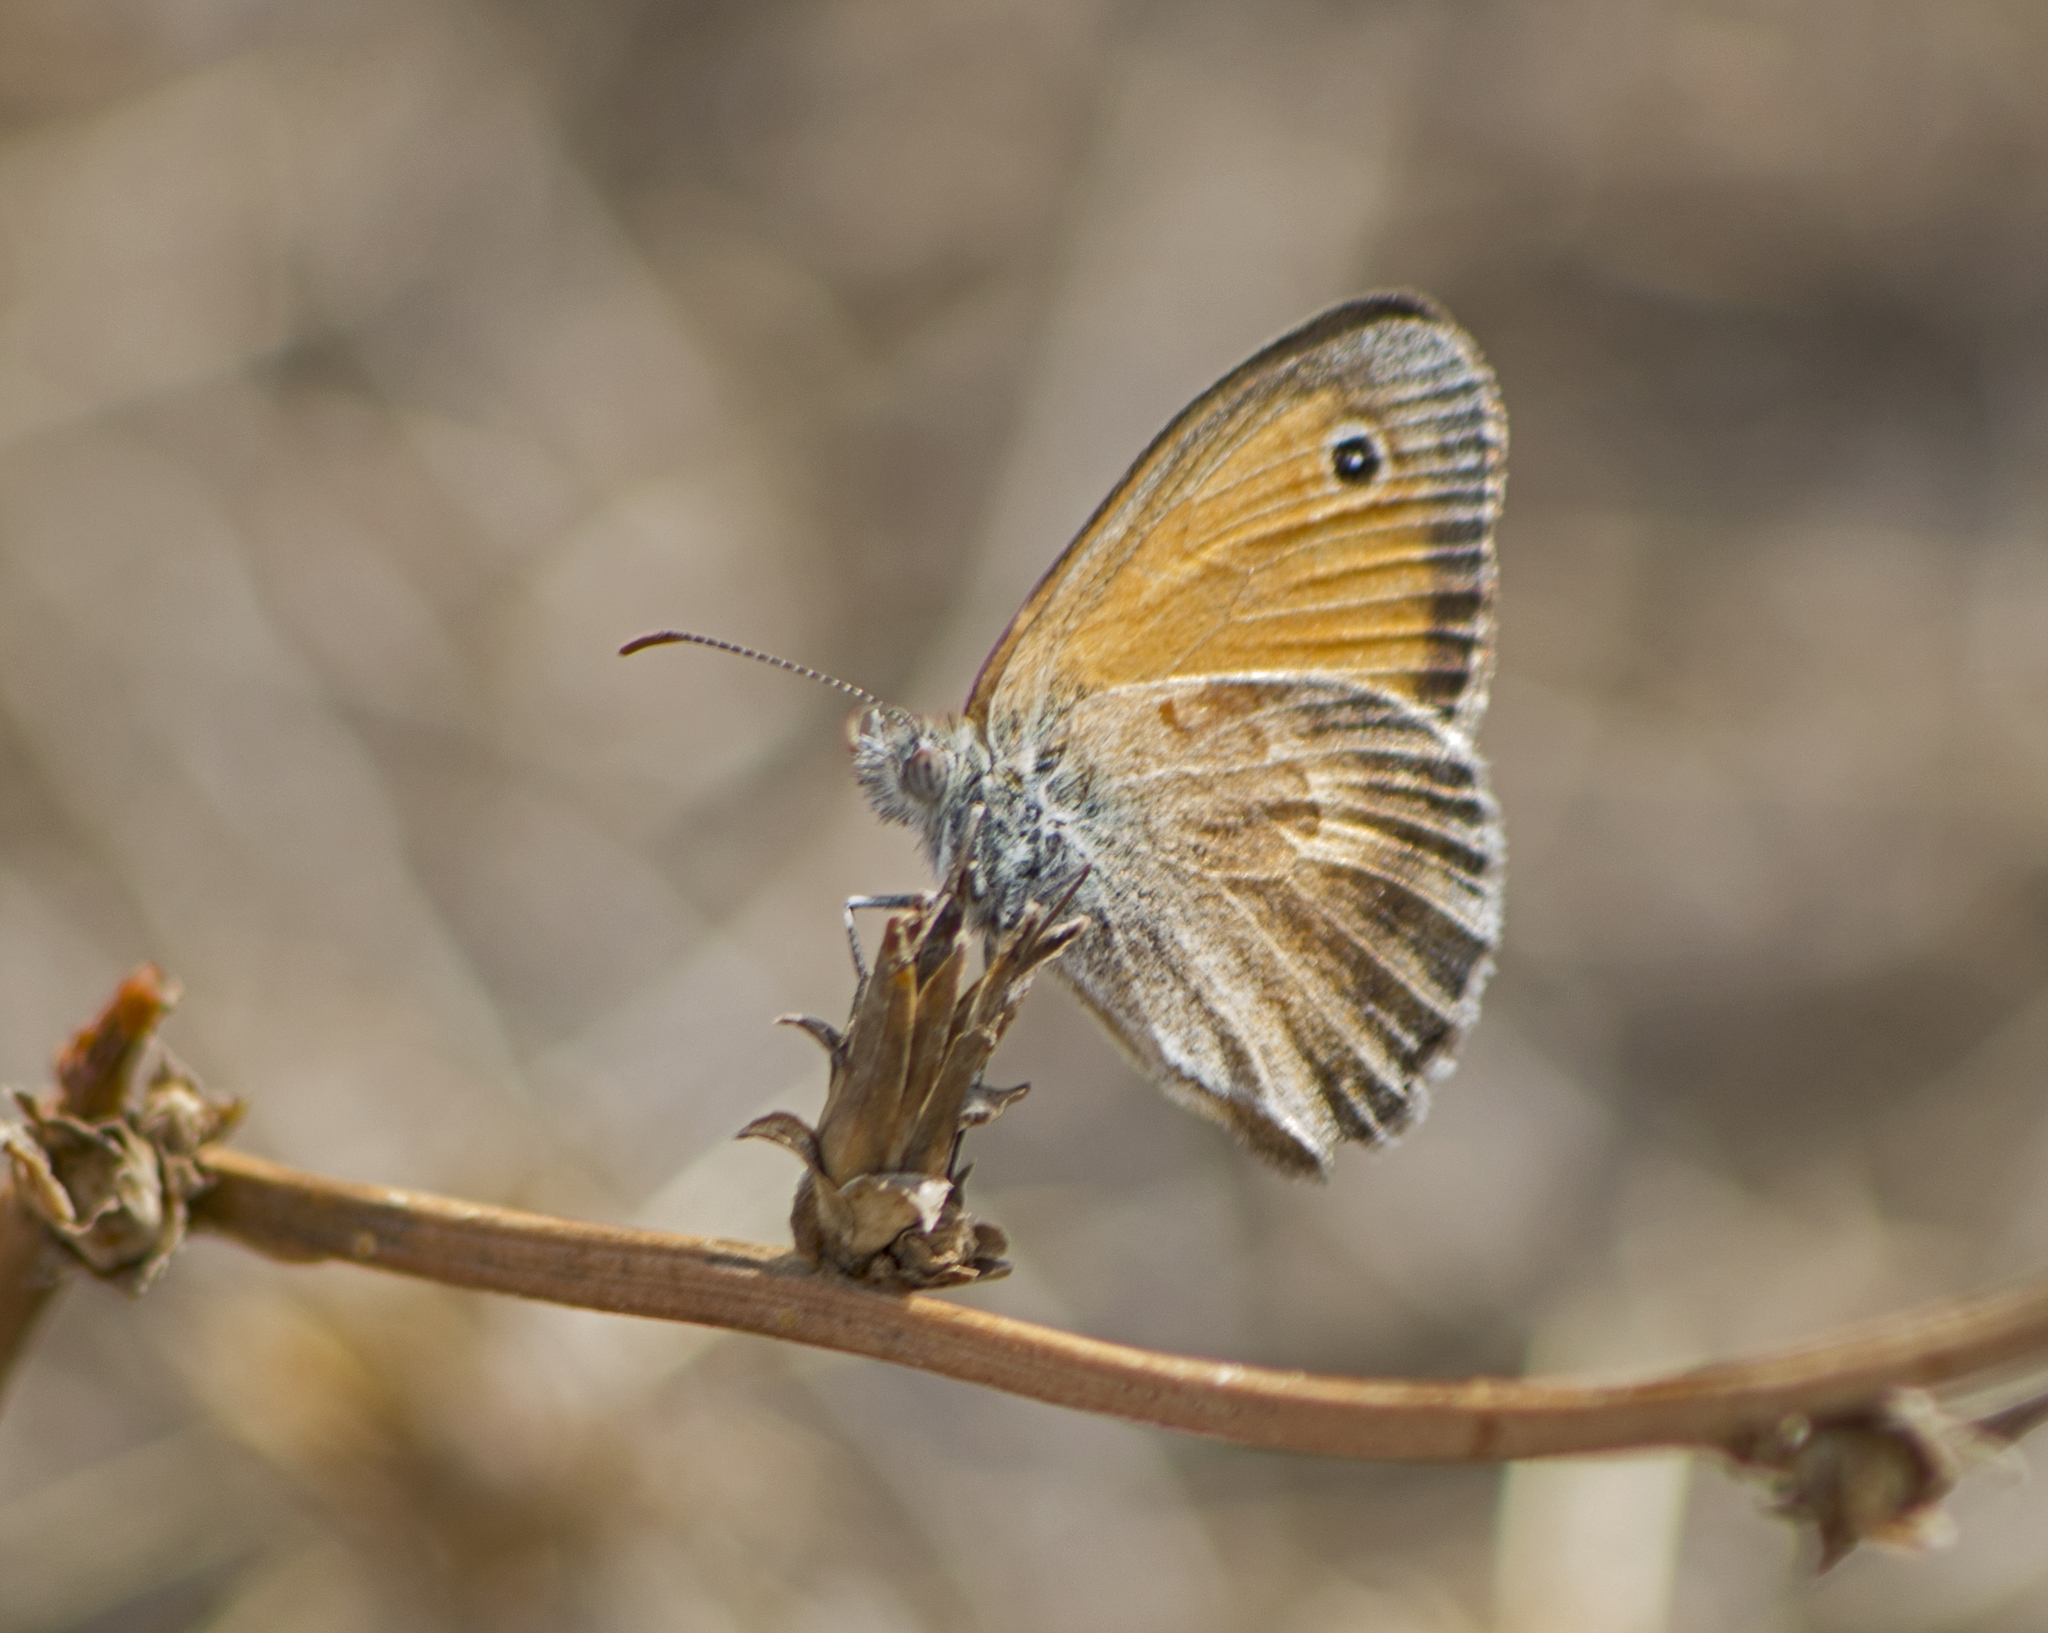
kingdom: Animalia
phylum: Arthropoda
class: Insecta
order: Lepidoptera
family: Nymphalidae
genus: Coenonympha
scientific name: Coenonympha pamphilus
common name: Small heath
